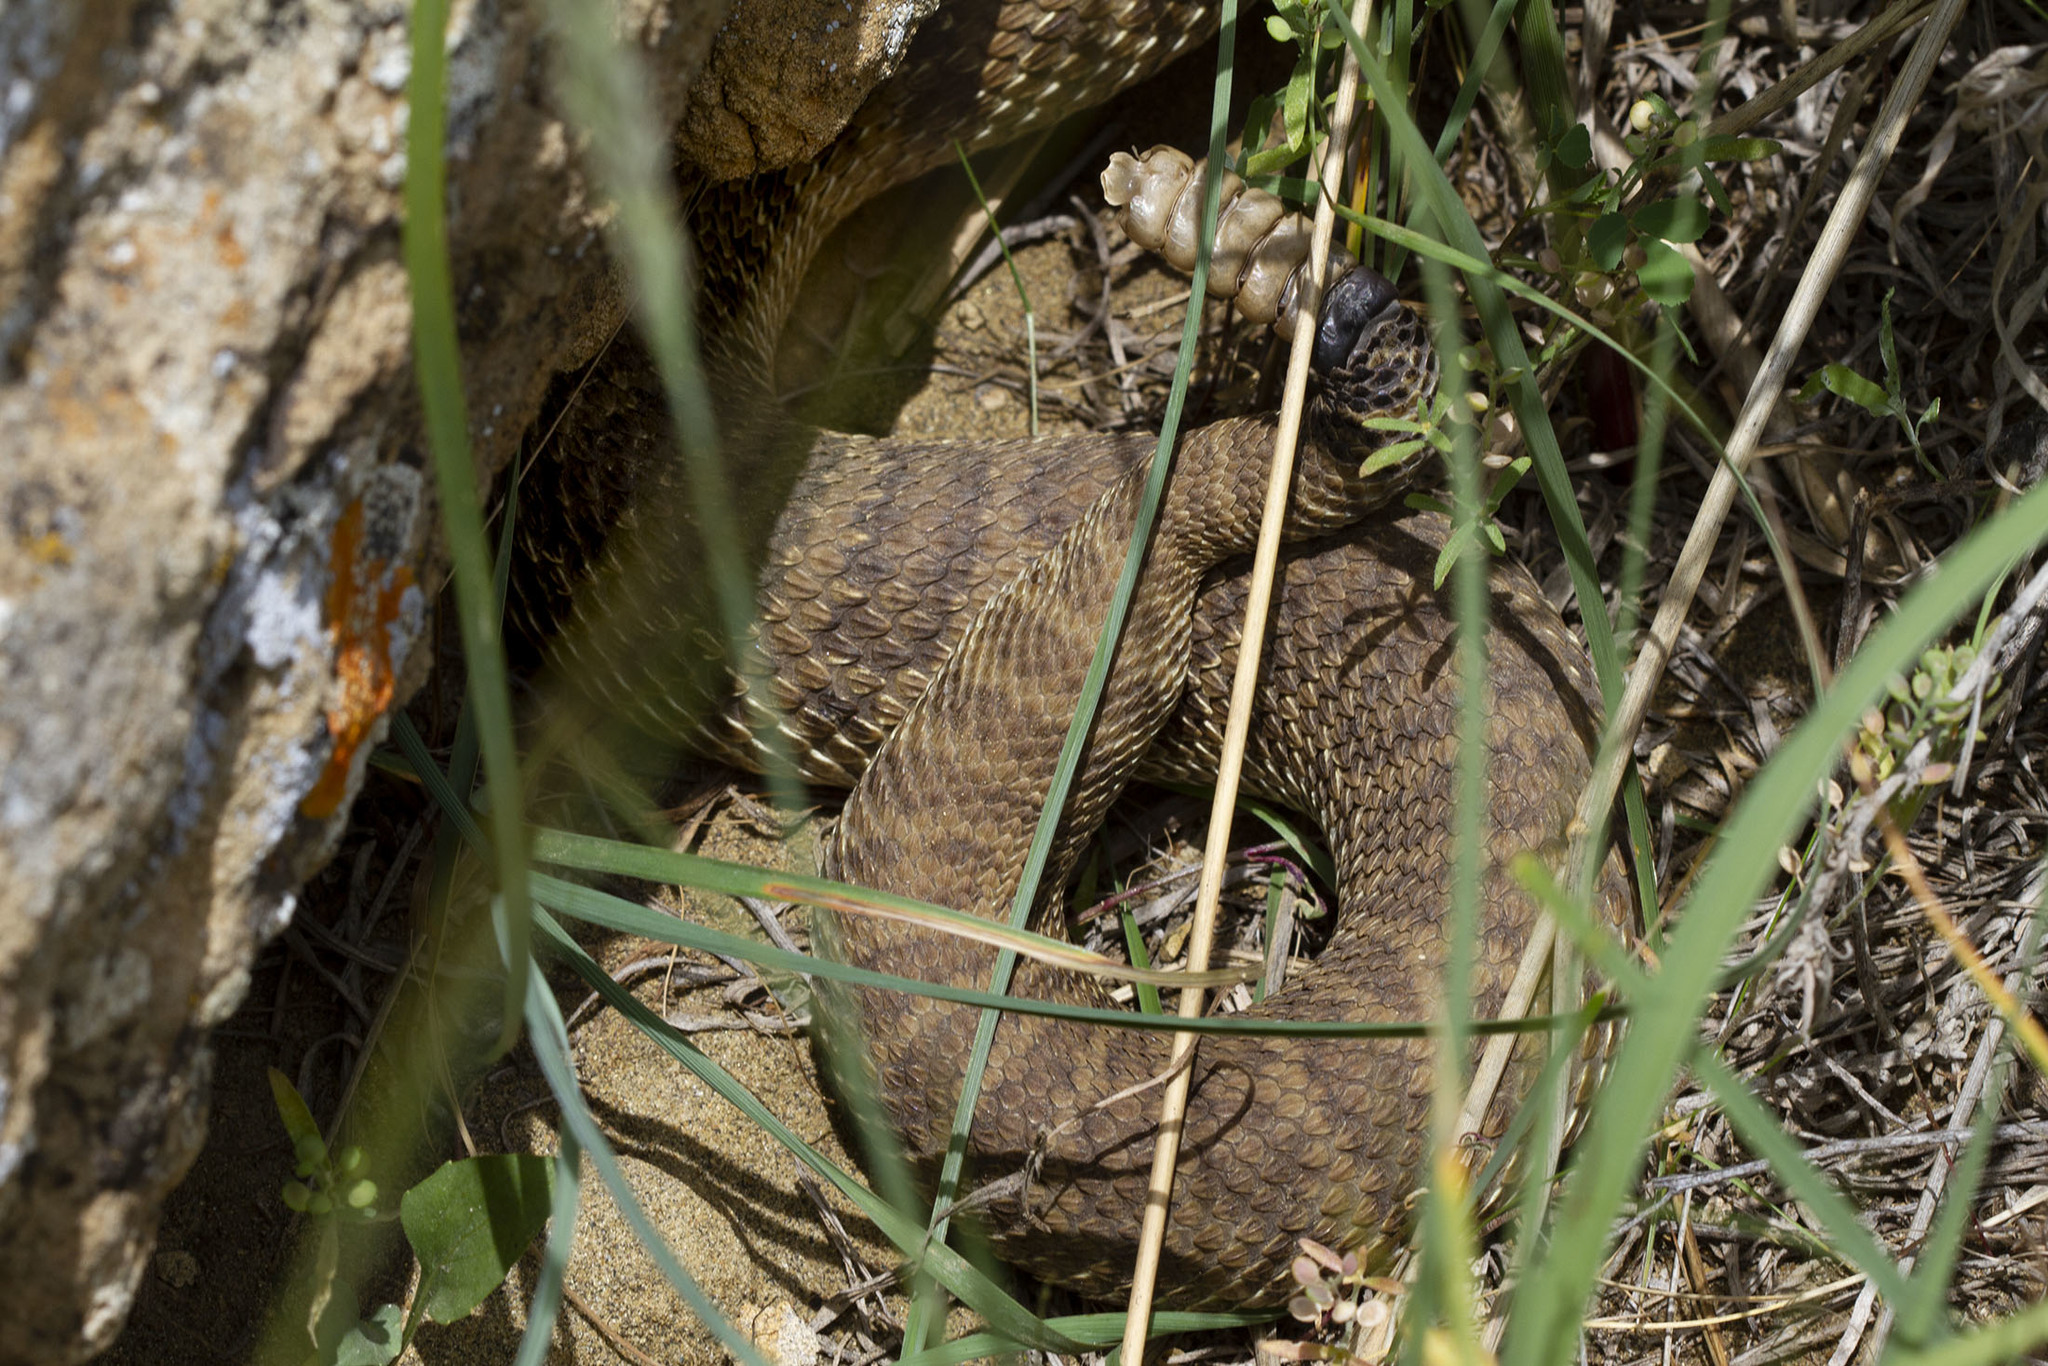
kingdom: Animalia
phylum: Chordata
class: Squamata
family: Viperidae
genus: Crotalus
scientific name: Crotalus viridis
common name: Prairie rattlesnake
